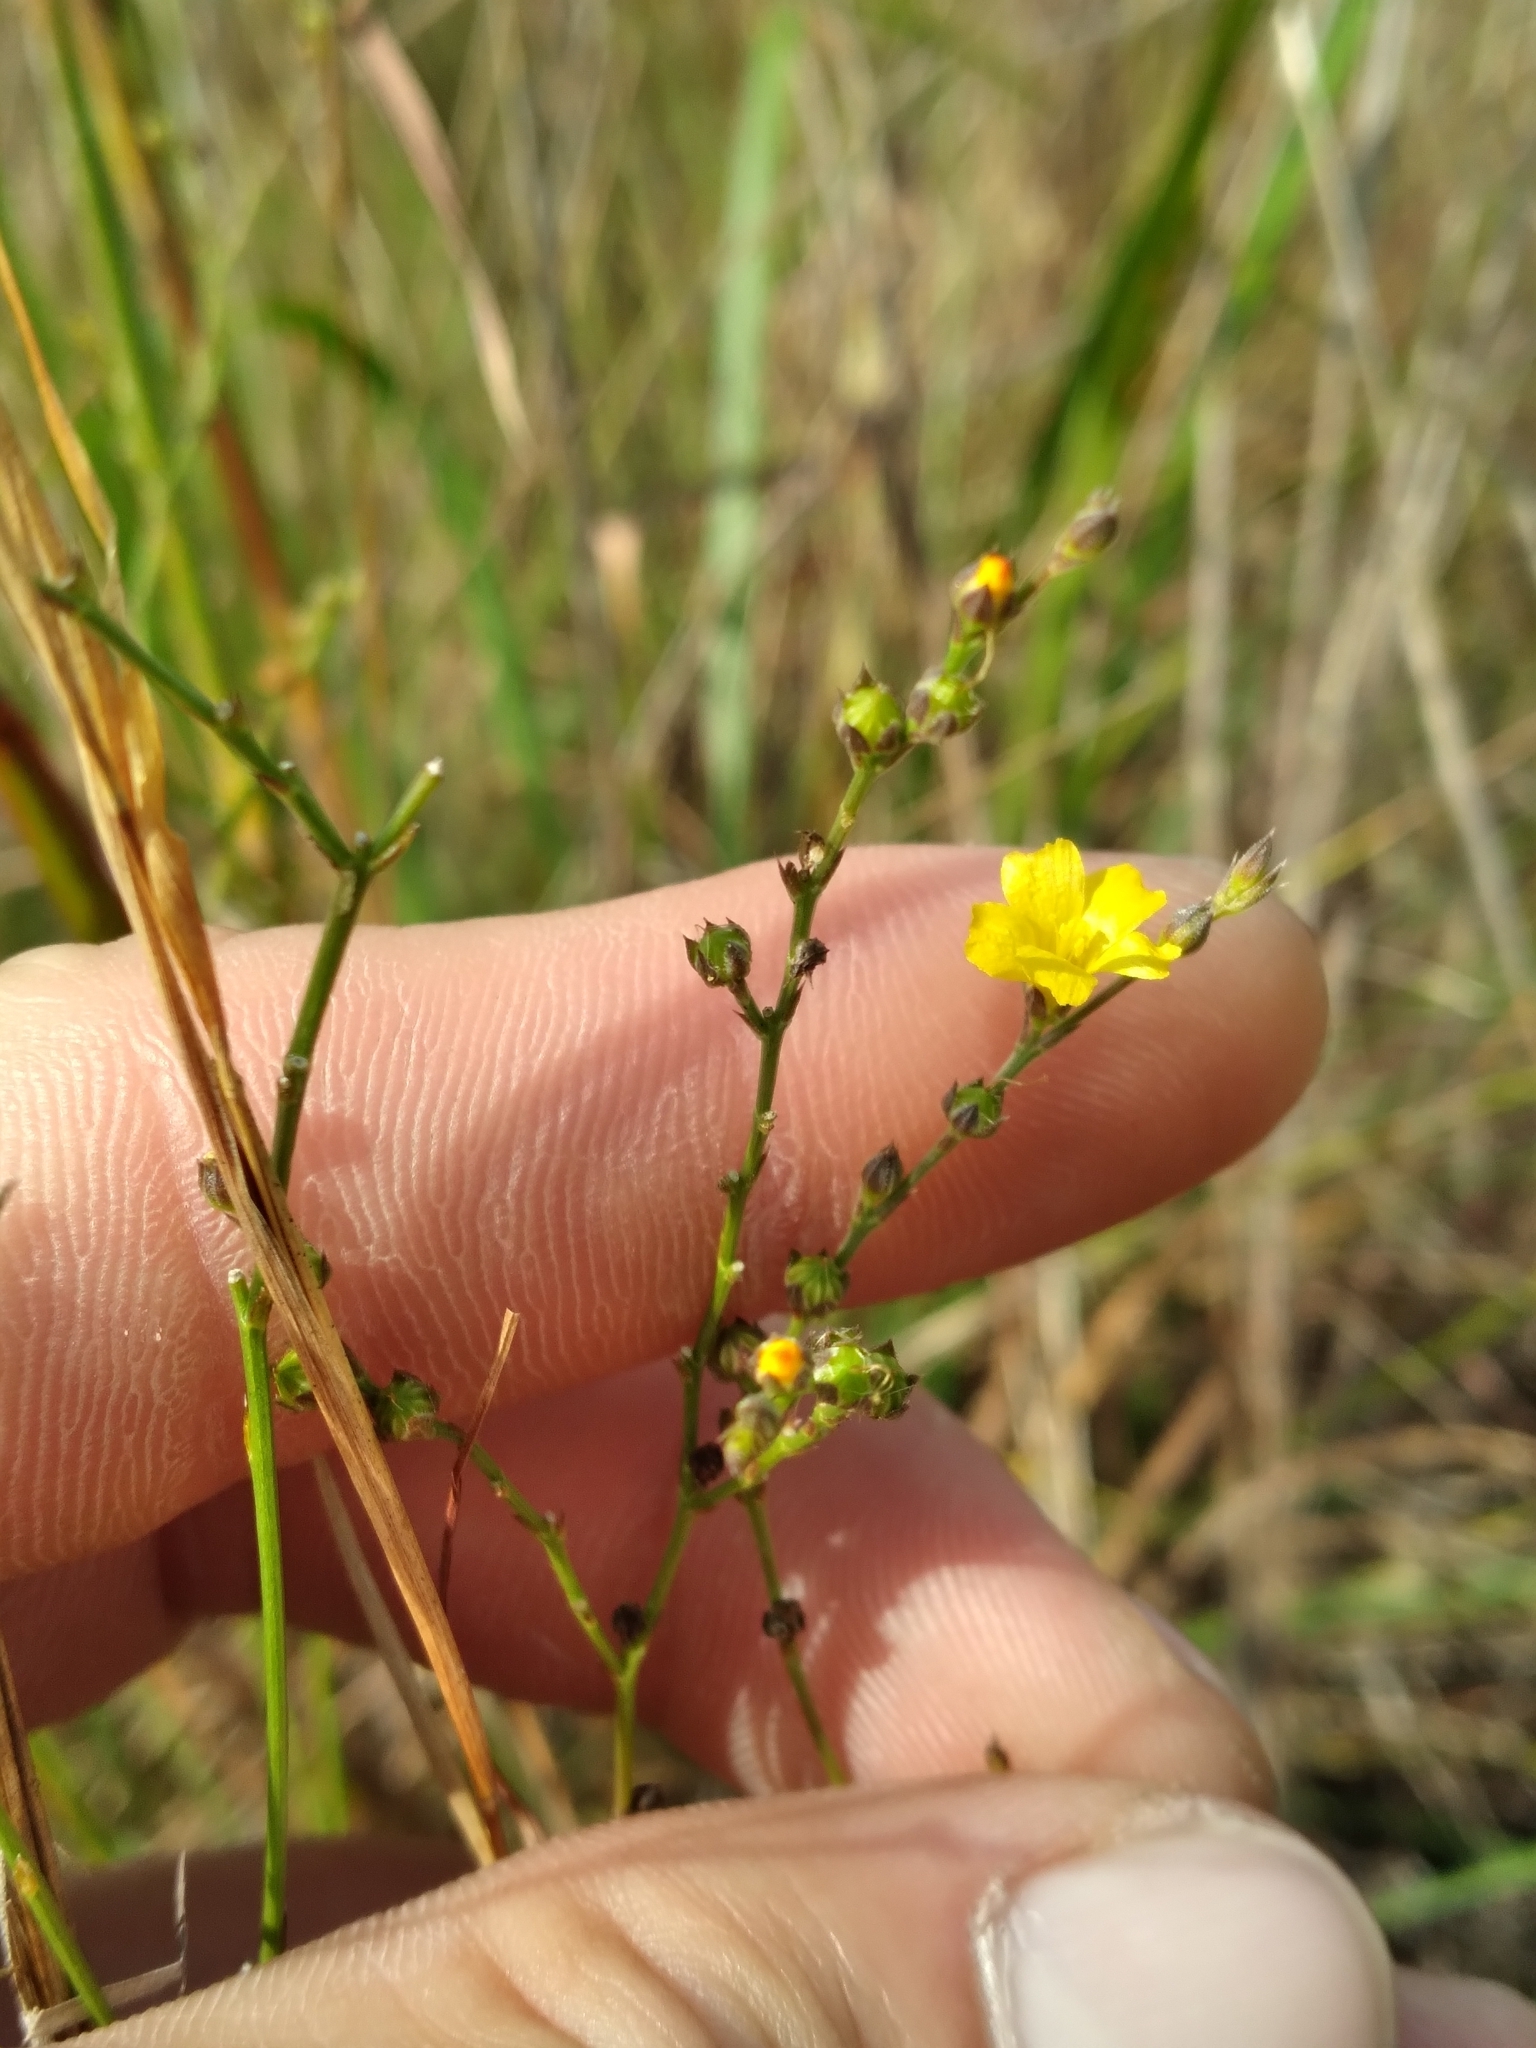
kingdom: Plantae
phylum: Tracheophyta
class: Magnoliopsida
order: Malpighiales
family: Linaceae
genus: Linum
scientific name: Linum arenicola
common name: Sand flax
